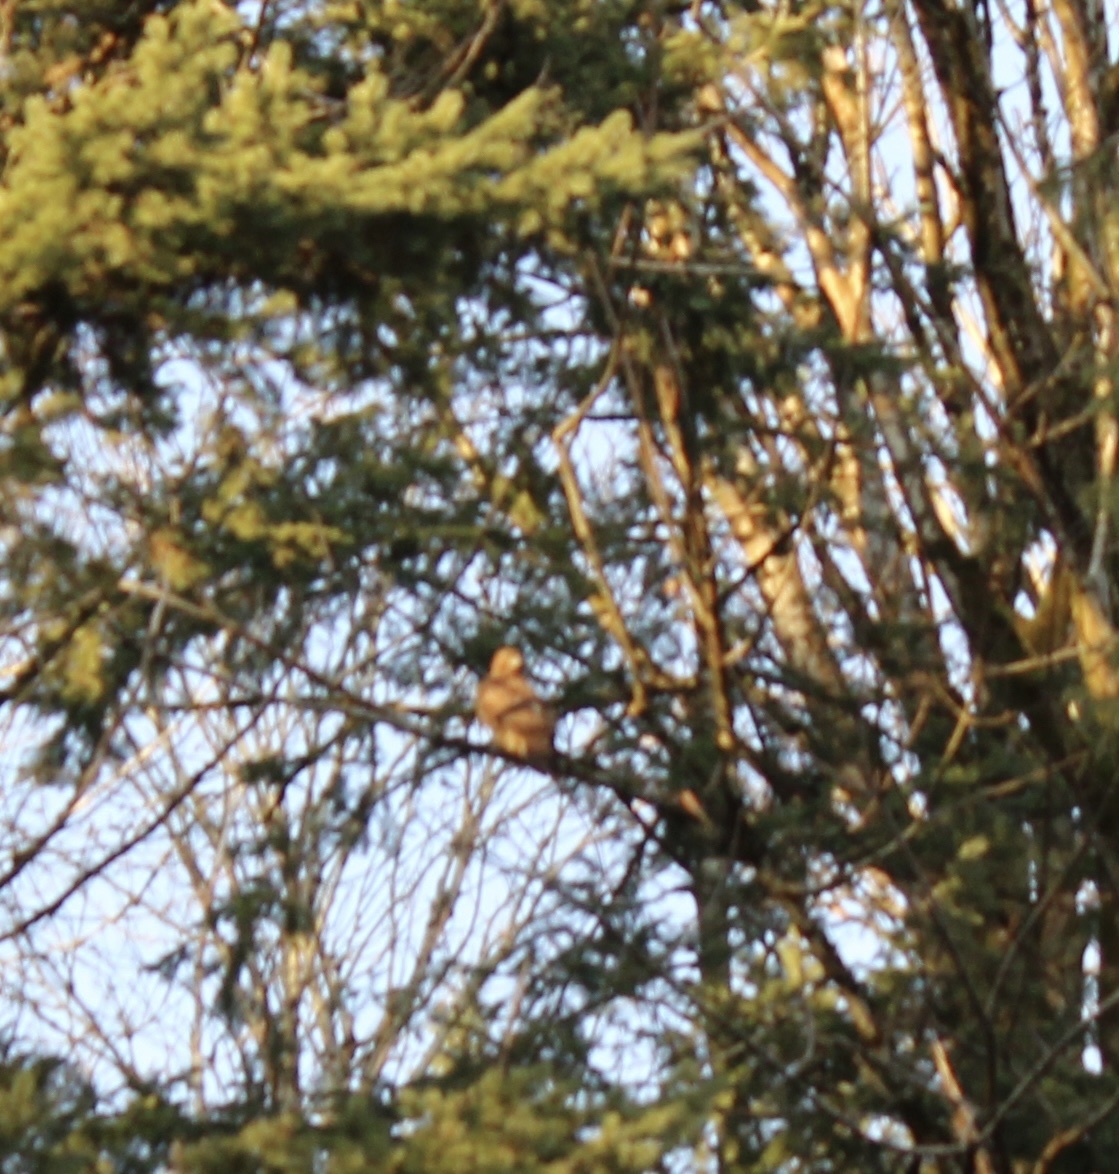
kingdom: Animalia
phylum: Chordata
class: Aves
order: Accipitriformes
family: Accipitridae
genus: Buteo
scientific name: Buteo jamaicensis
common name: Red-tailed hawk
